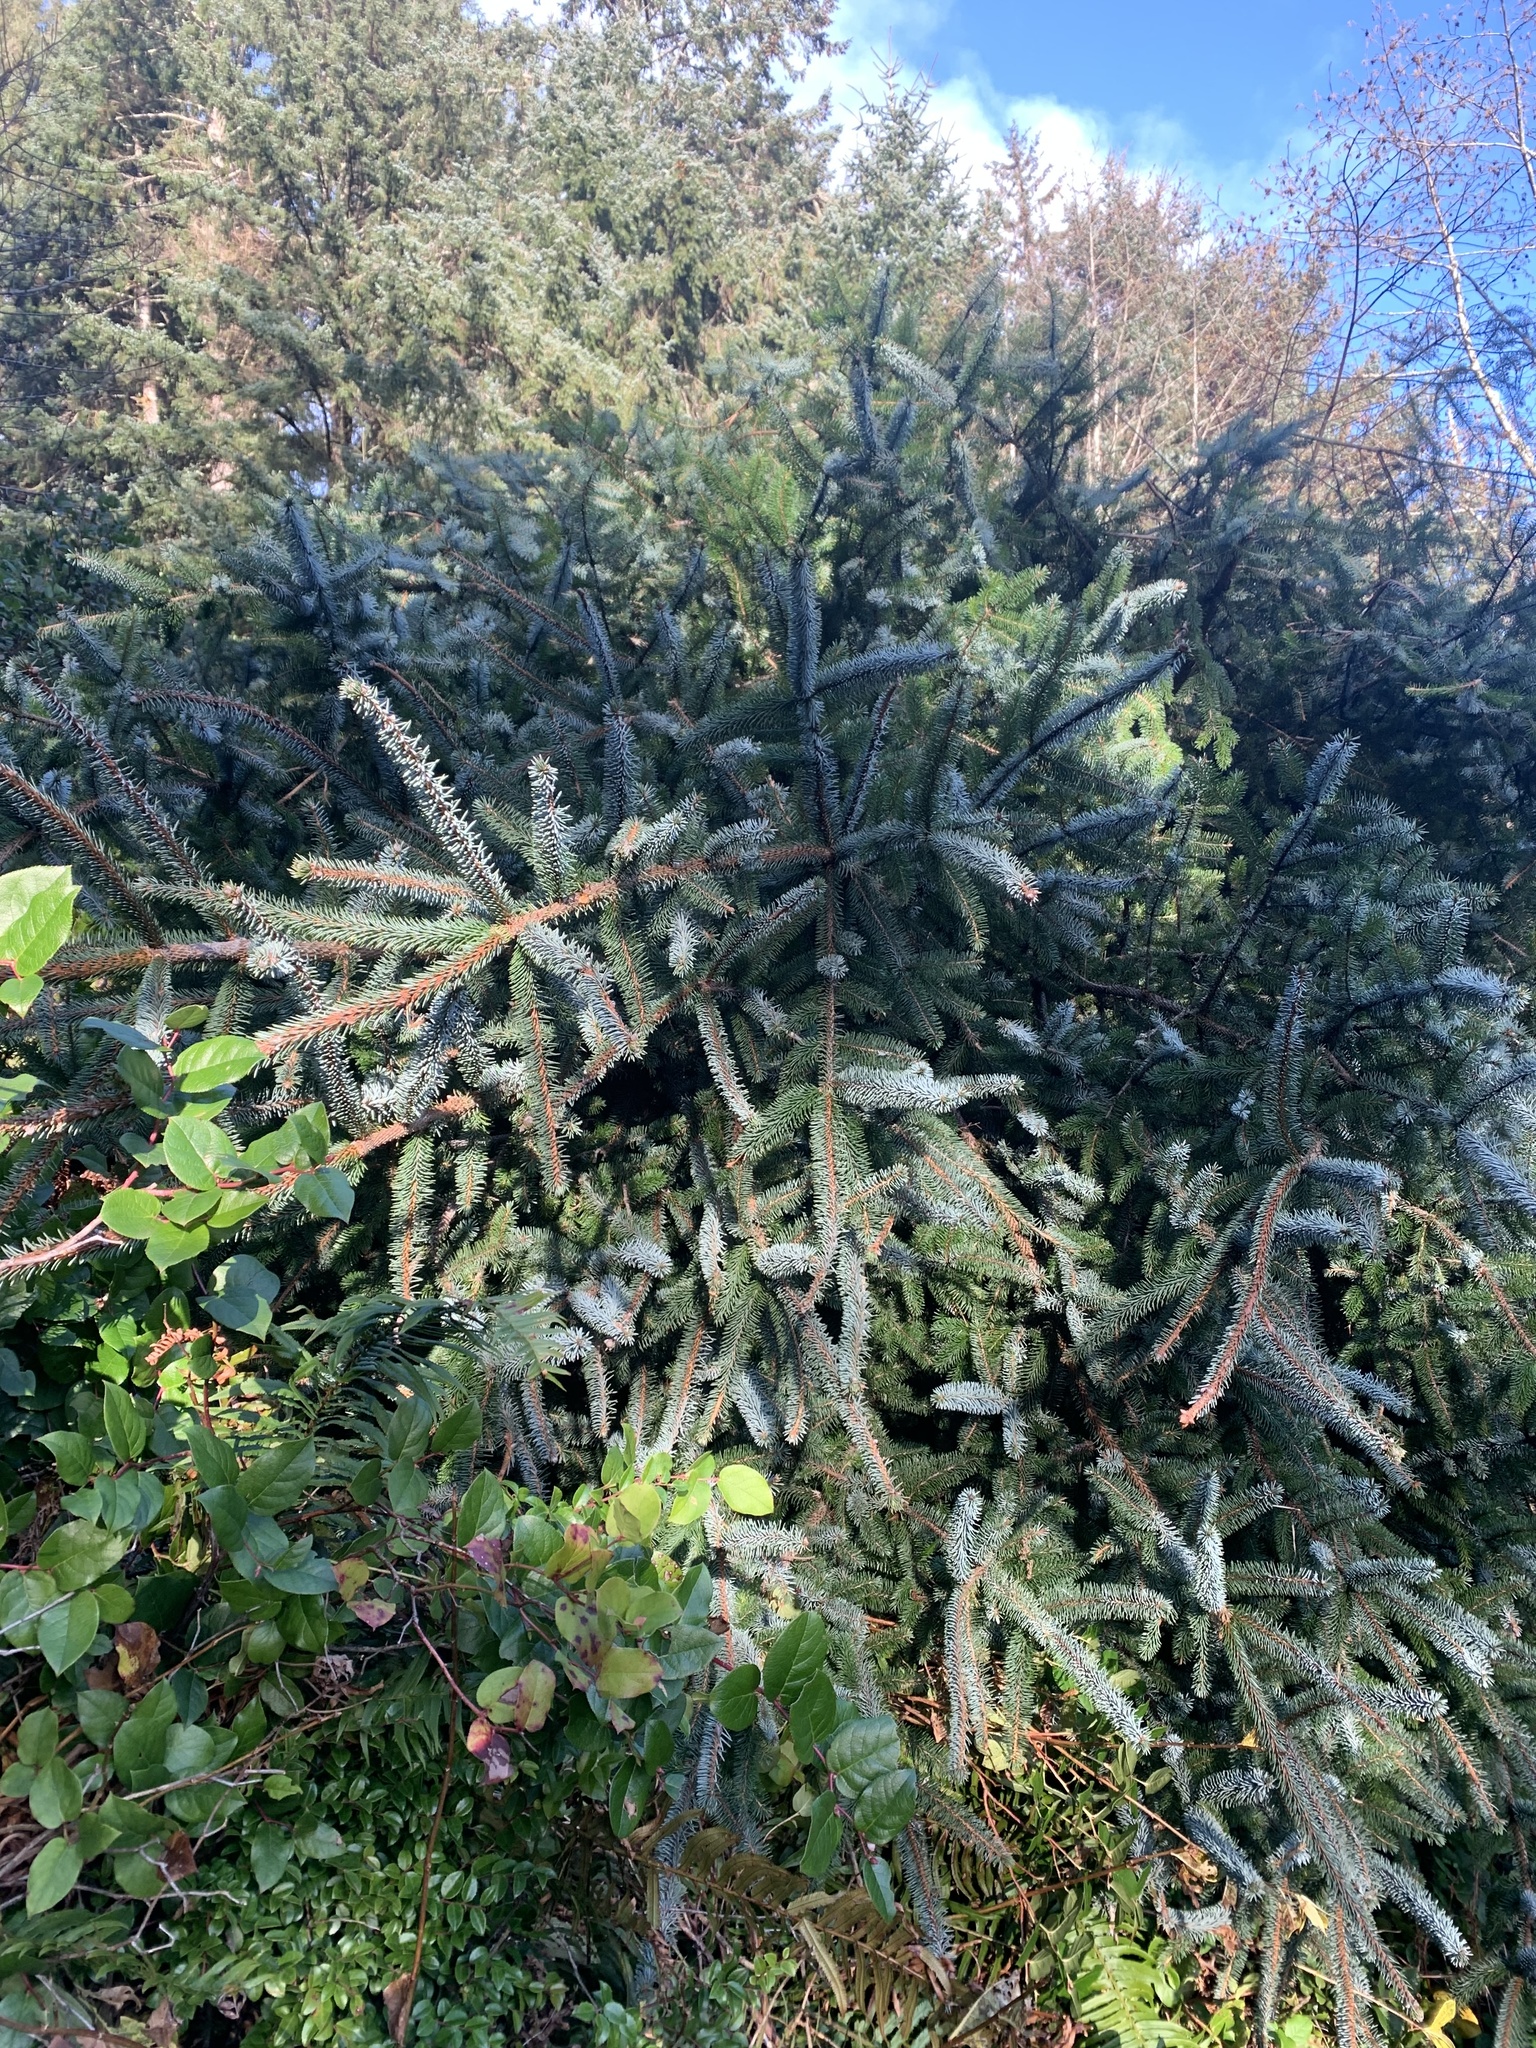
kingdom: Plantae
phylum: Tracheophyta
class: Pinopsida
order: Pinales
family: Pinaceae
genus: Picea
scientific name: Picea sitchensis
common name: Sitka spruce
